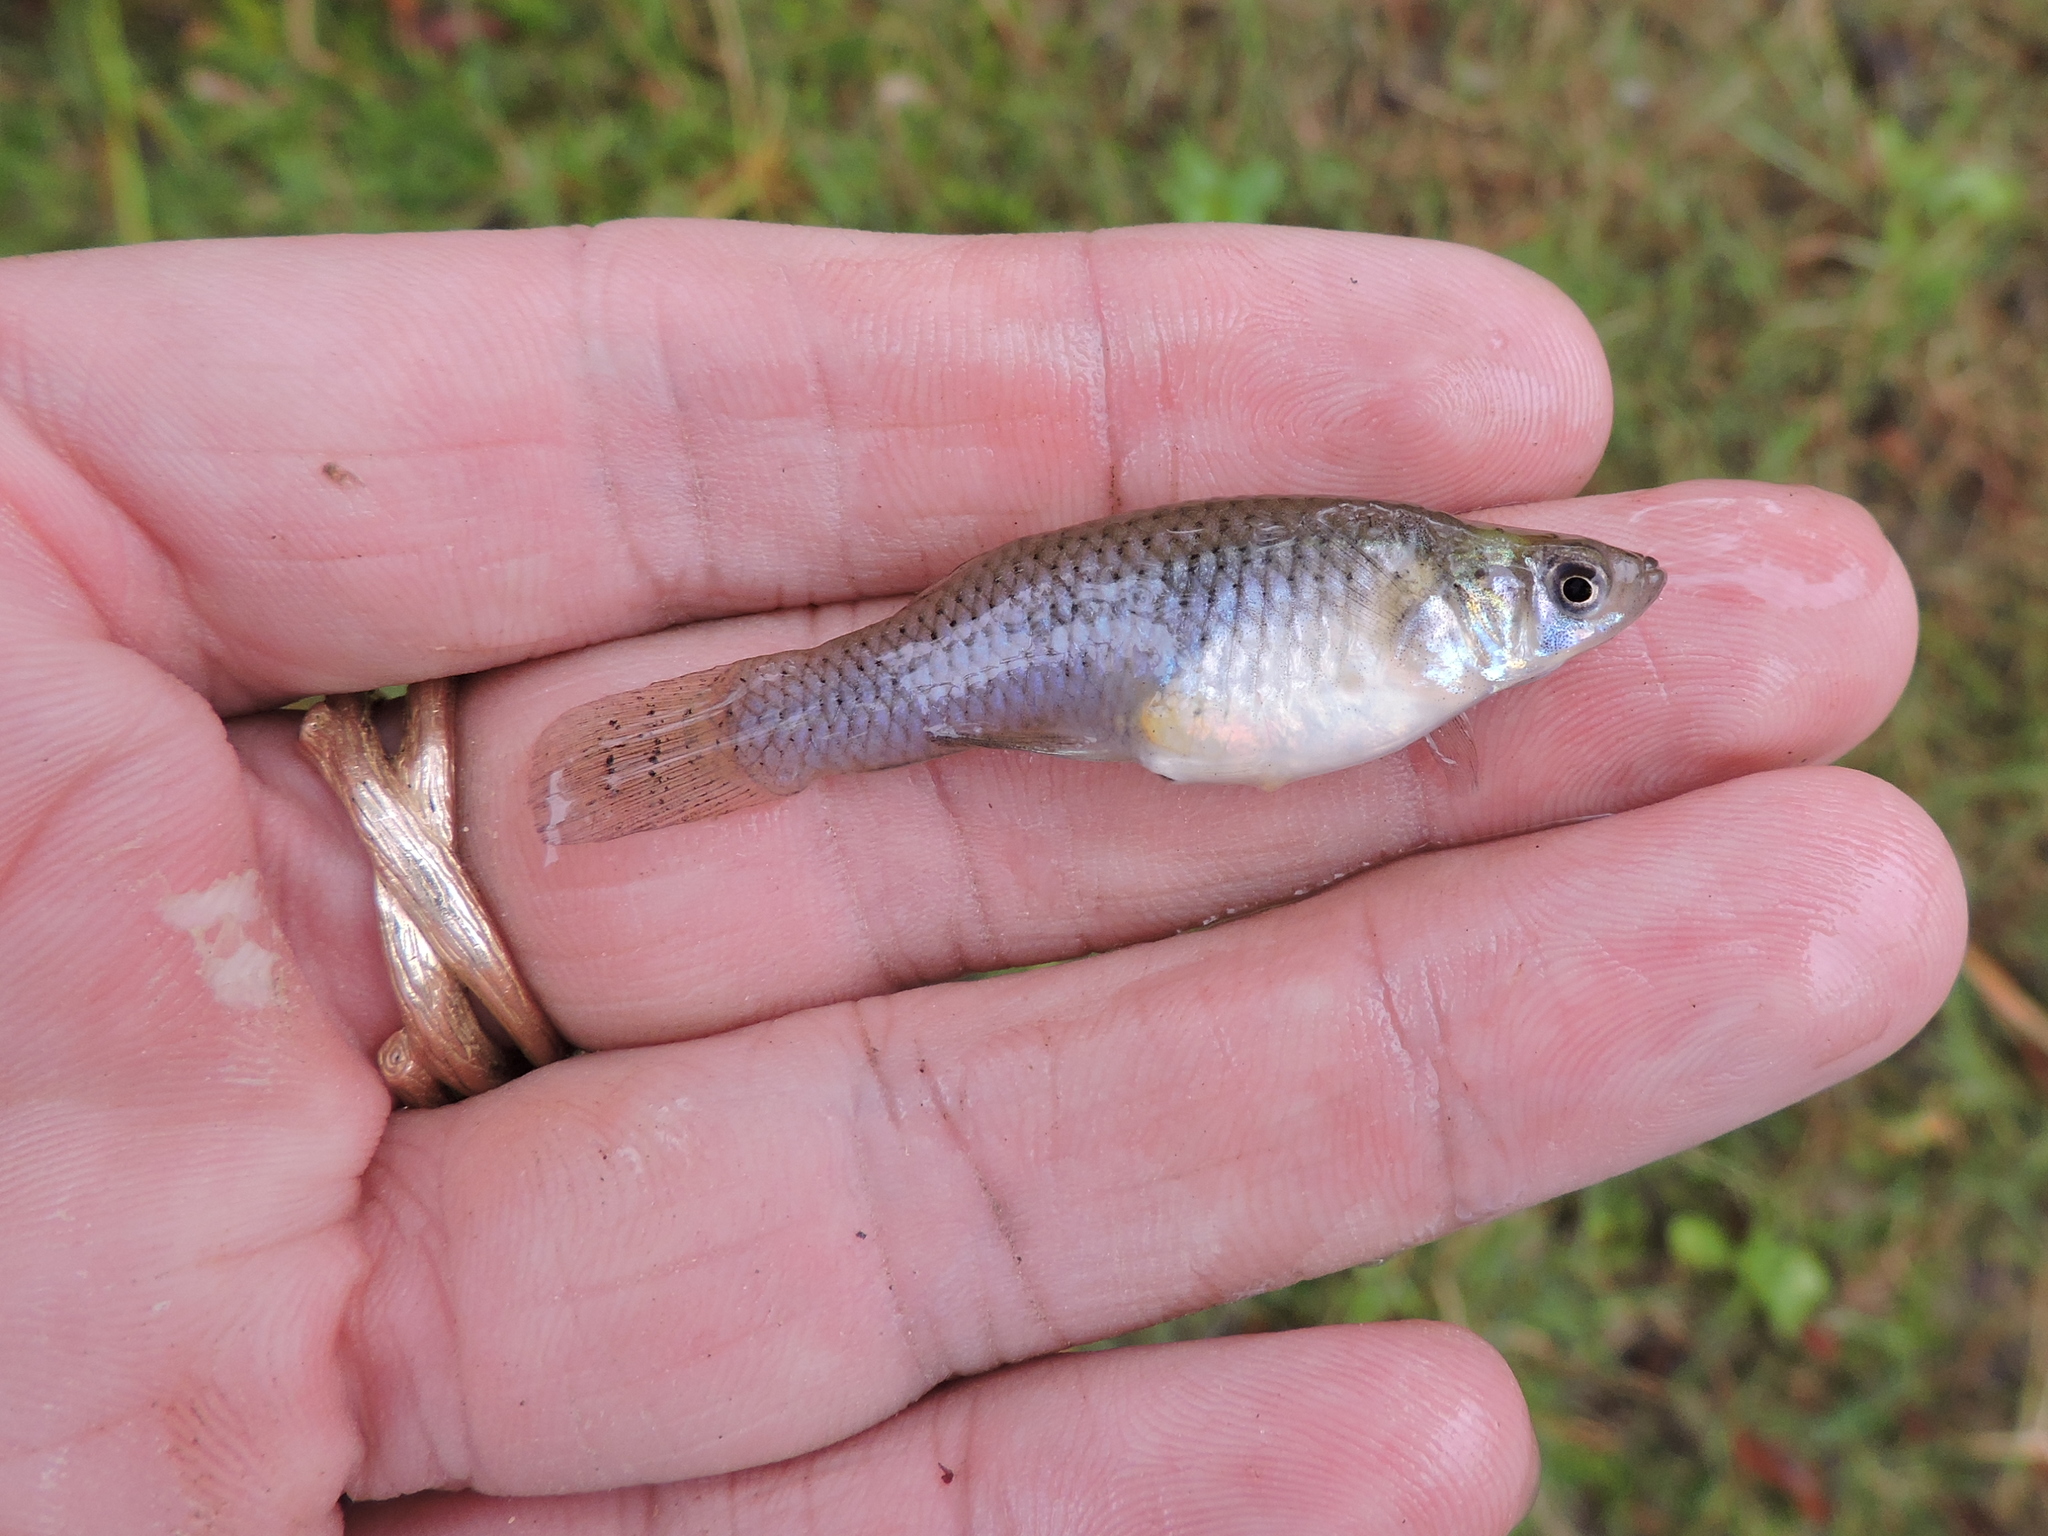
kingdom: Animalia
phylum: Chordata
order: Cyprinodontiformes
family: Poeciliidae
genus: Gambusia
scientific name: Gambusia affinis
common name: Mosquitofish
